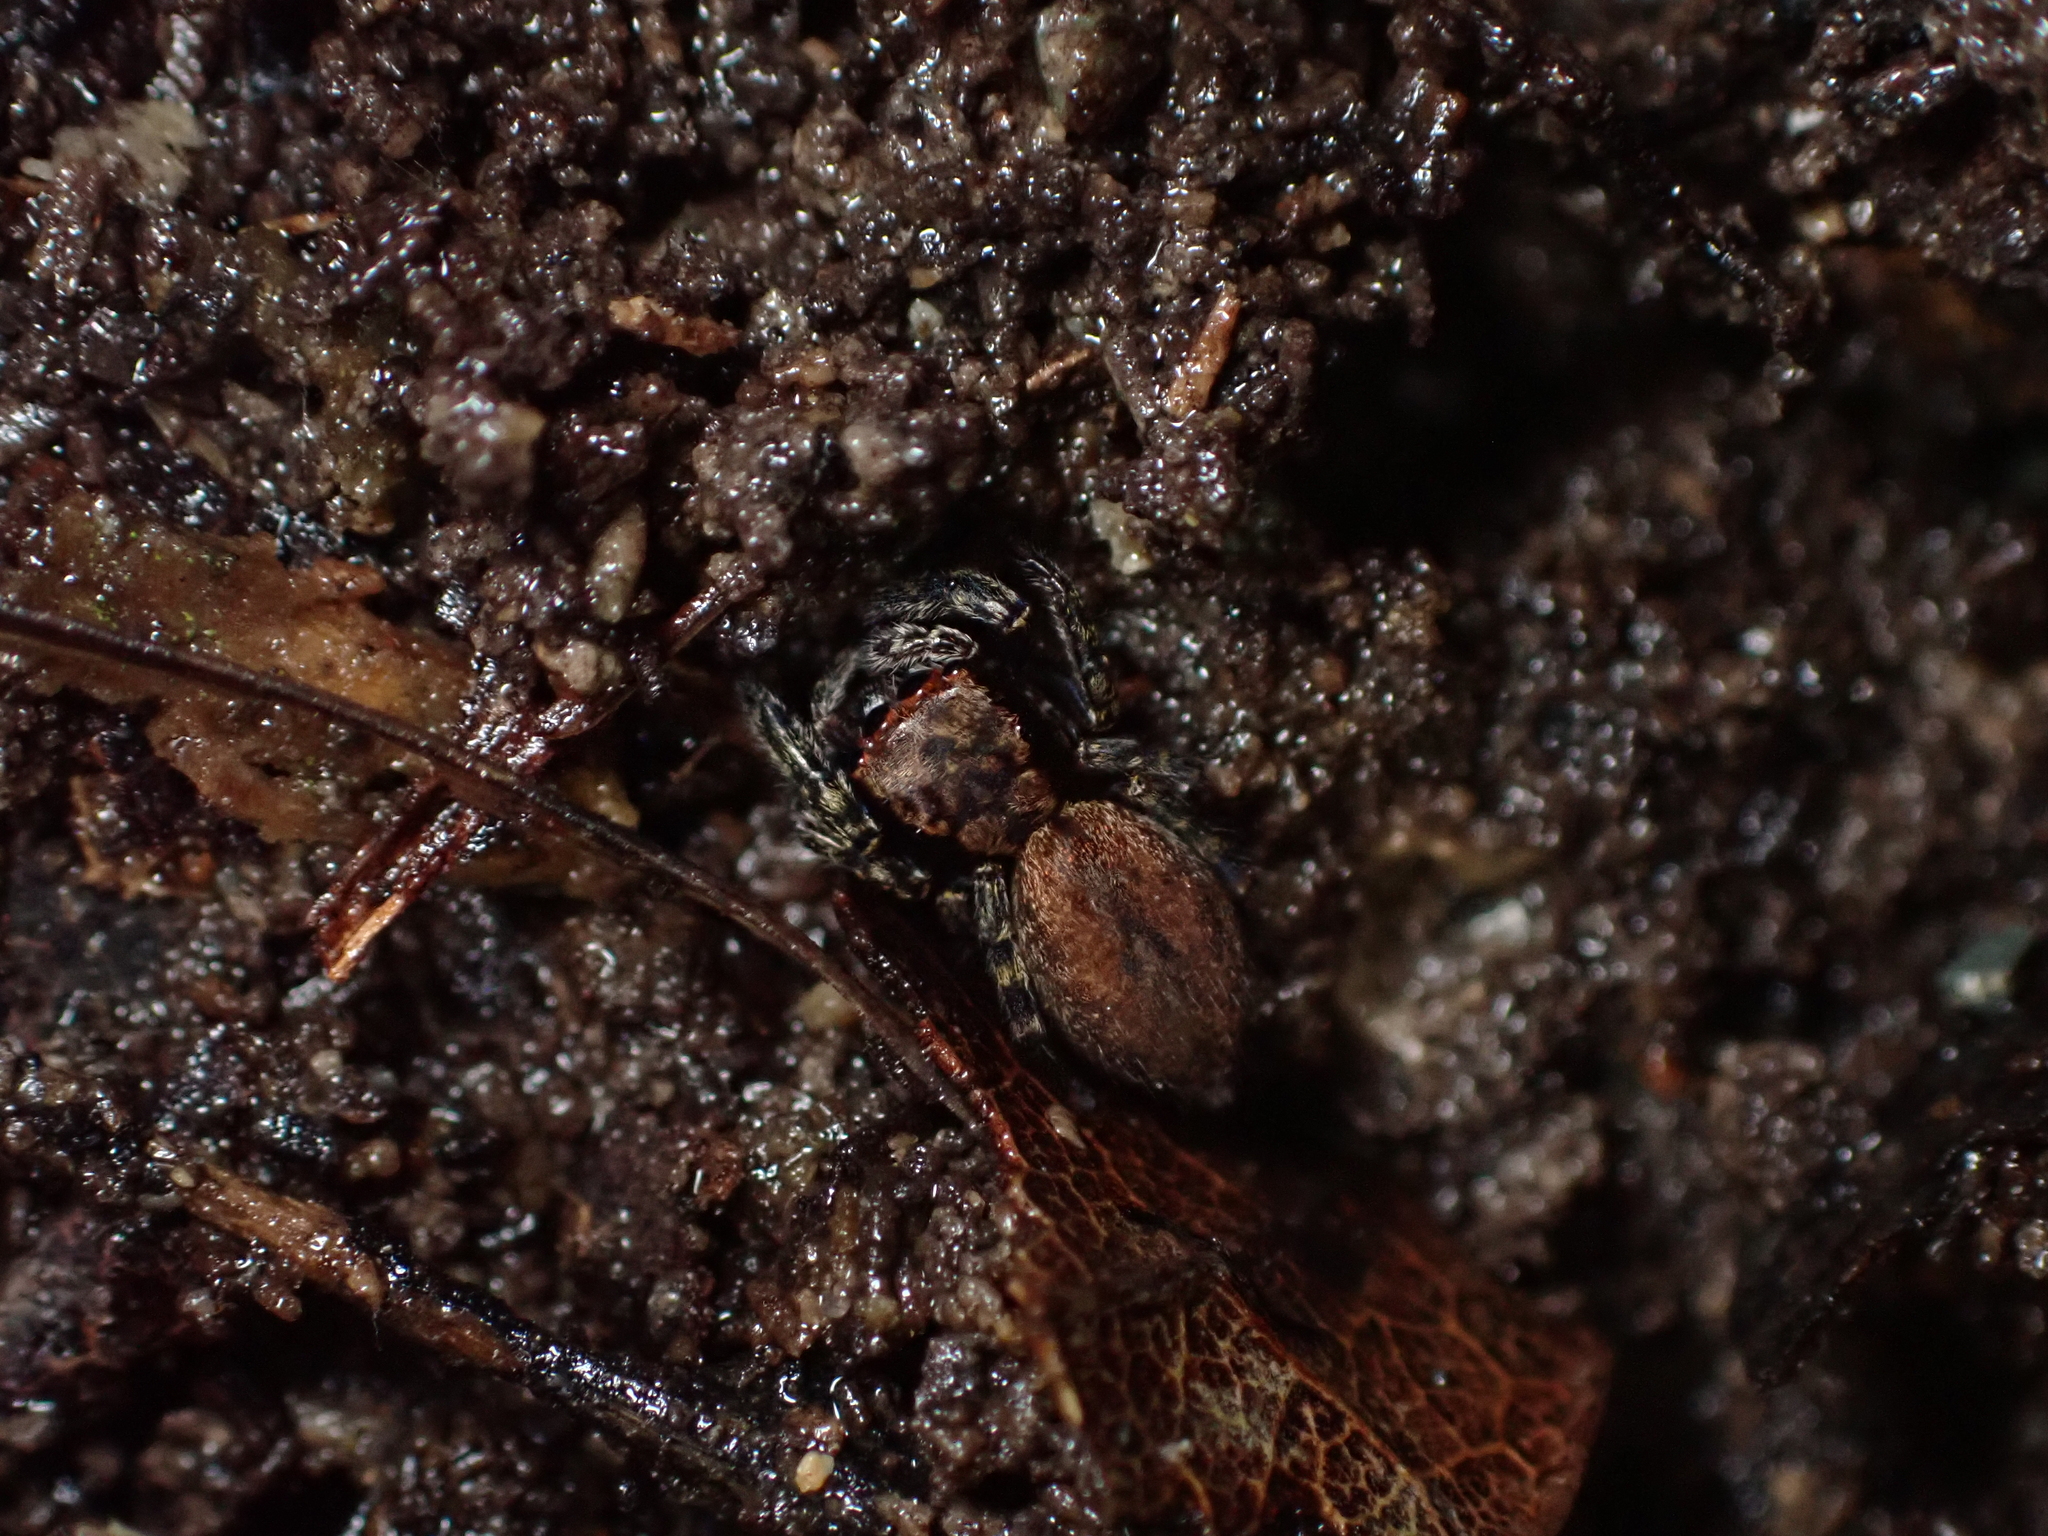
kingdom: Animalia
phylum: Arthropoda
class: Arachnida
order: Araneae
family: Salticidae
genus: Trite
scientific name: Trite auricoma
